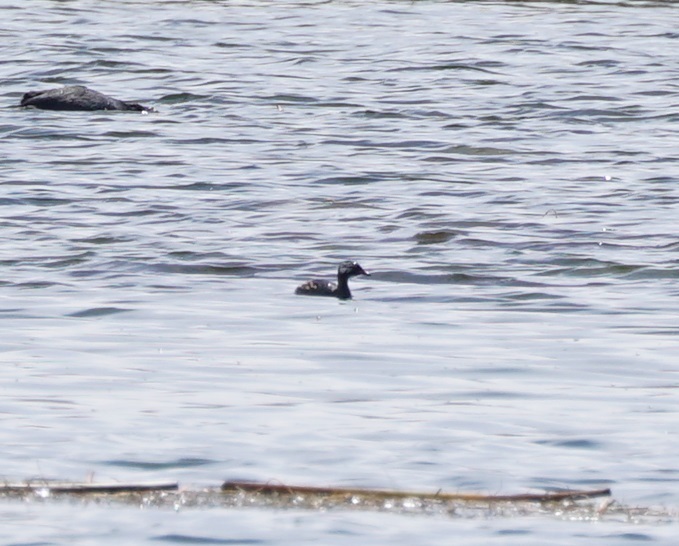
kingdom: Animalia
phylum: Chordata
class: Aves
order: Podicipediformes
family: Podicipedidae
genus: Rollandia
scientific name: Rollandia rolland
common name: White-tufted grebe
